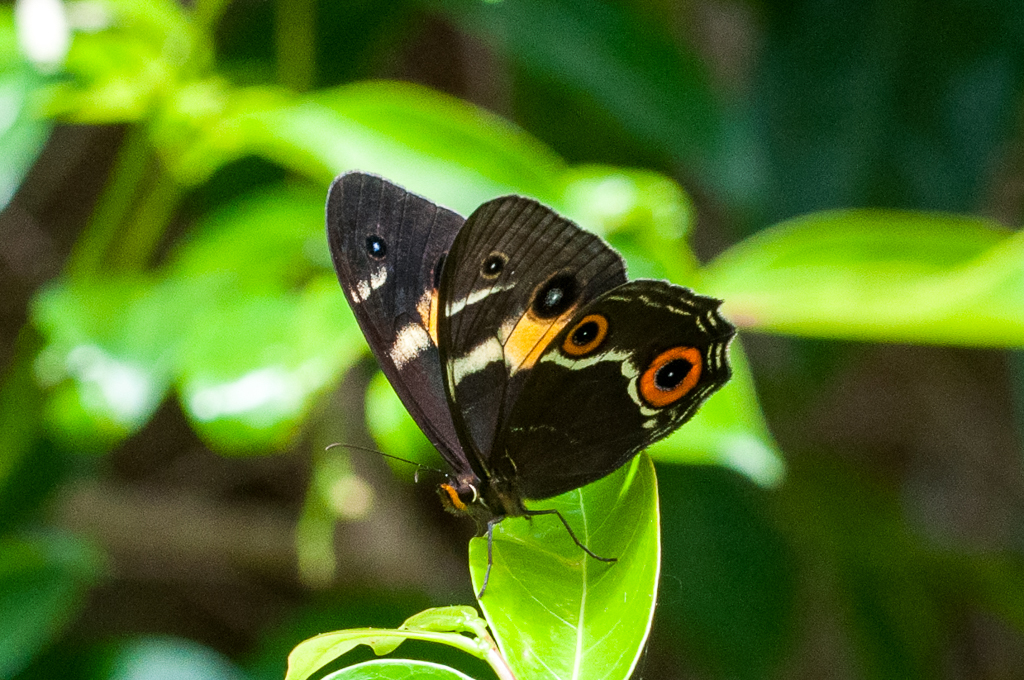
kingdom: Animalia
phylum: Arthropoda
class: Insecta
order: Lepidoptera
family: Nymphalidae
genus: Tisiphone
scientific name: Tisiphone abeona
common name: Swordgrass brown
